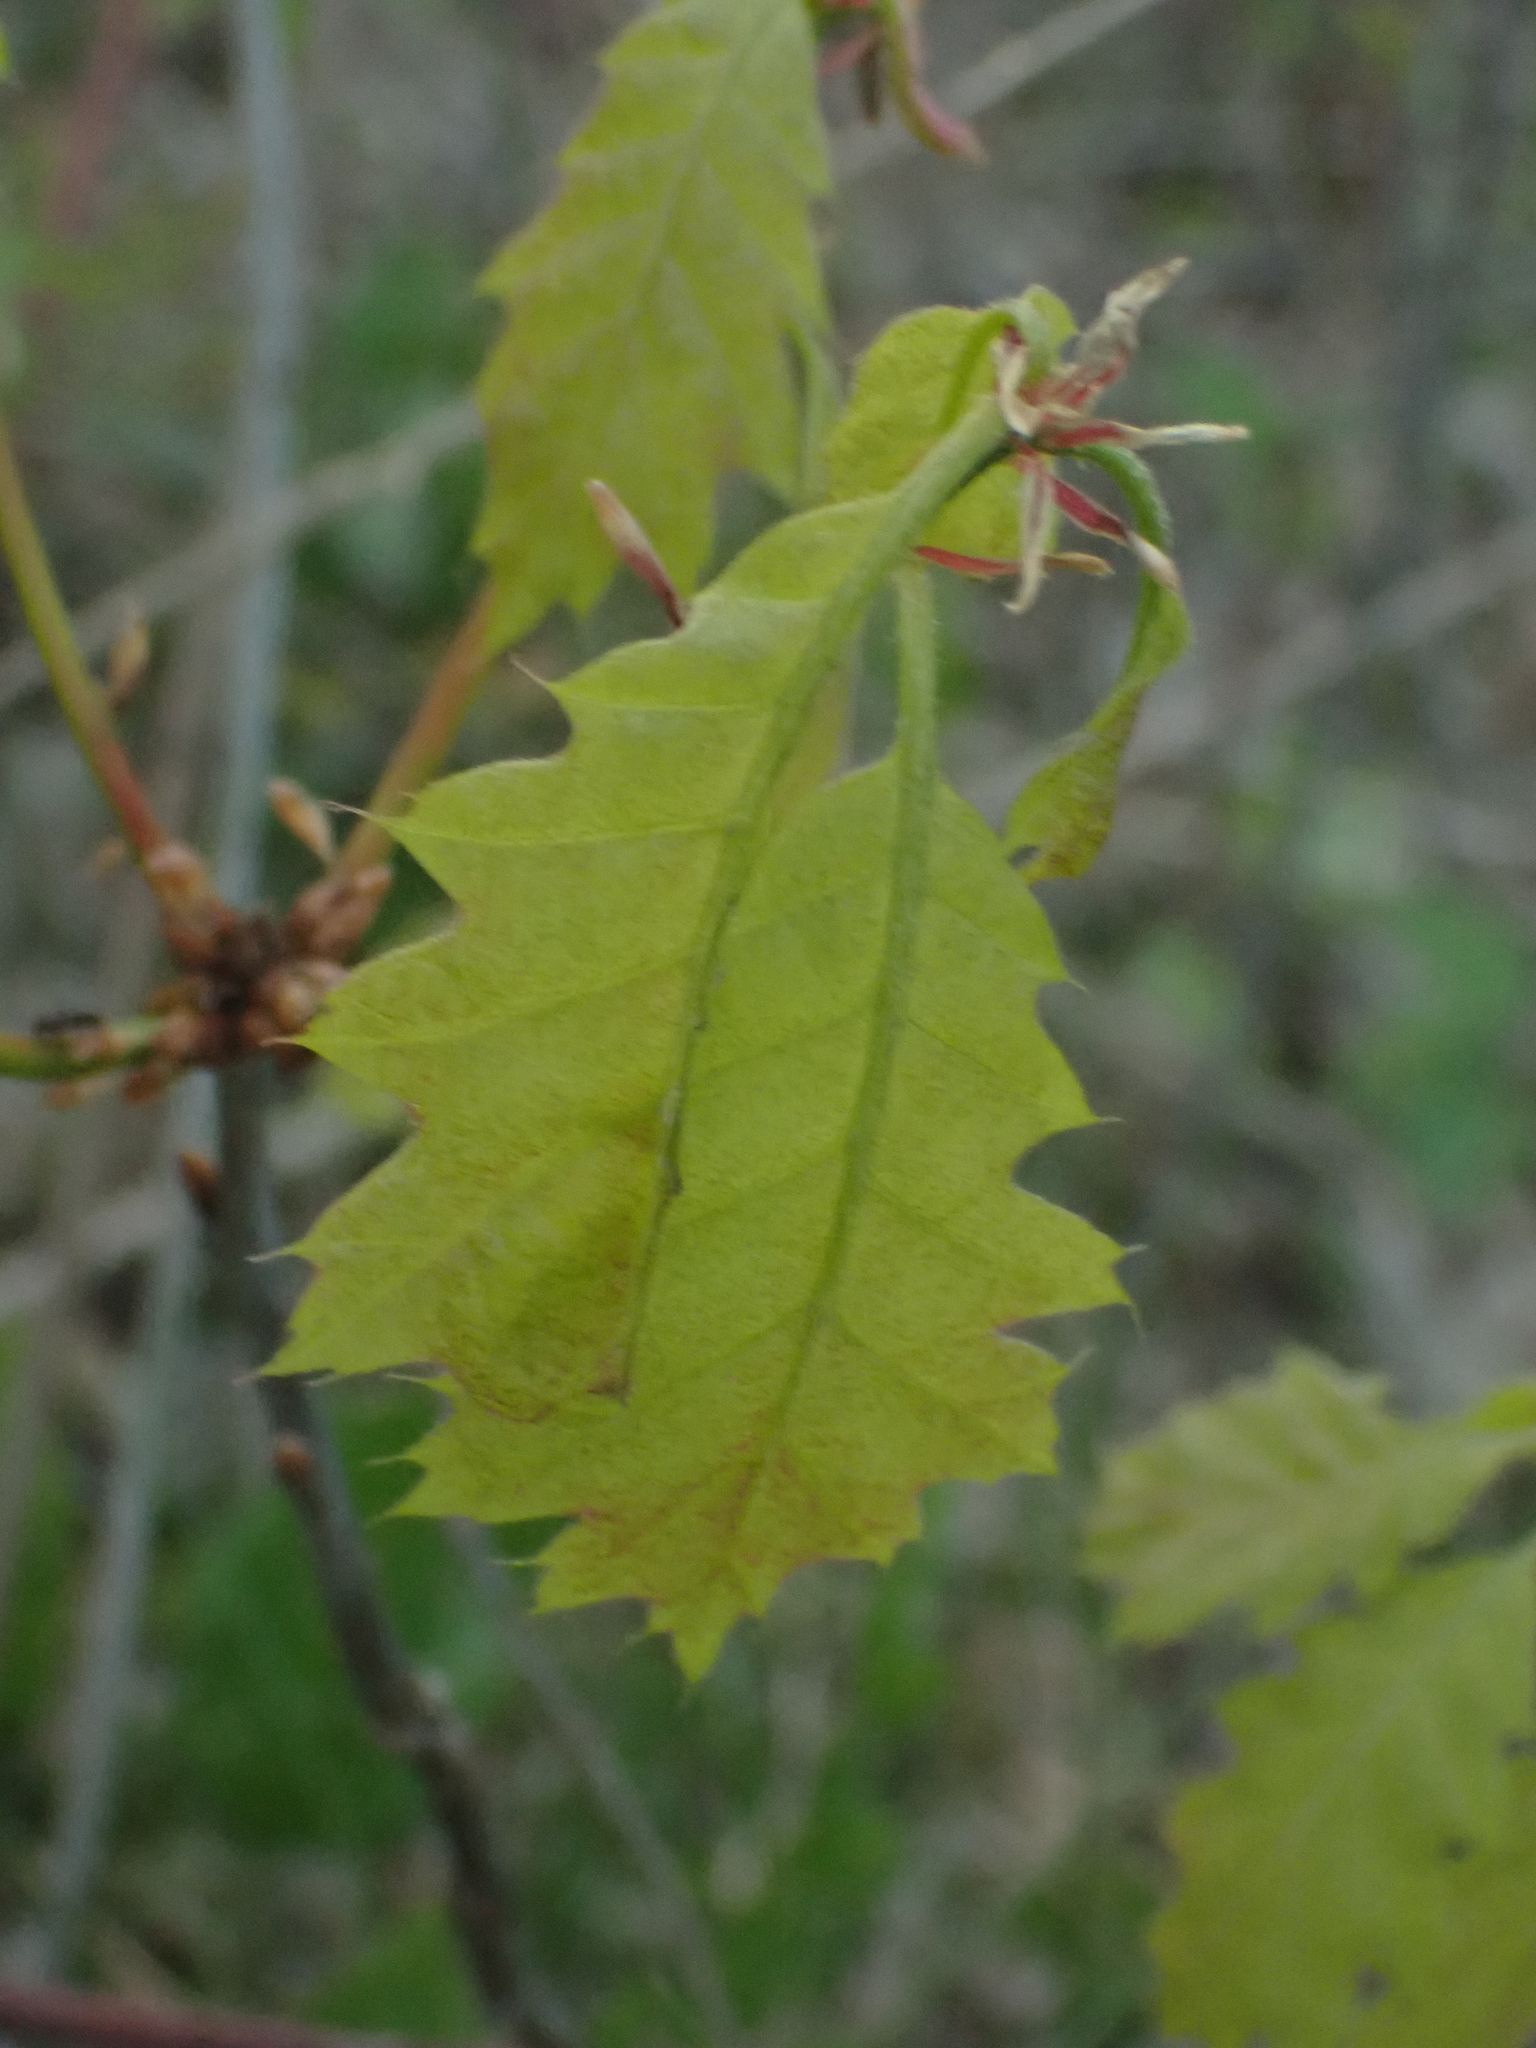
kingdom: Plantae
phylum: Tracheophyta
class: Magnoliopsida
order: Fagales
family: Fagaceae
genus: Quercus
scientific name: Quercus rubra
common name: Red oak
